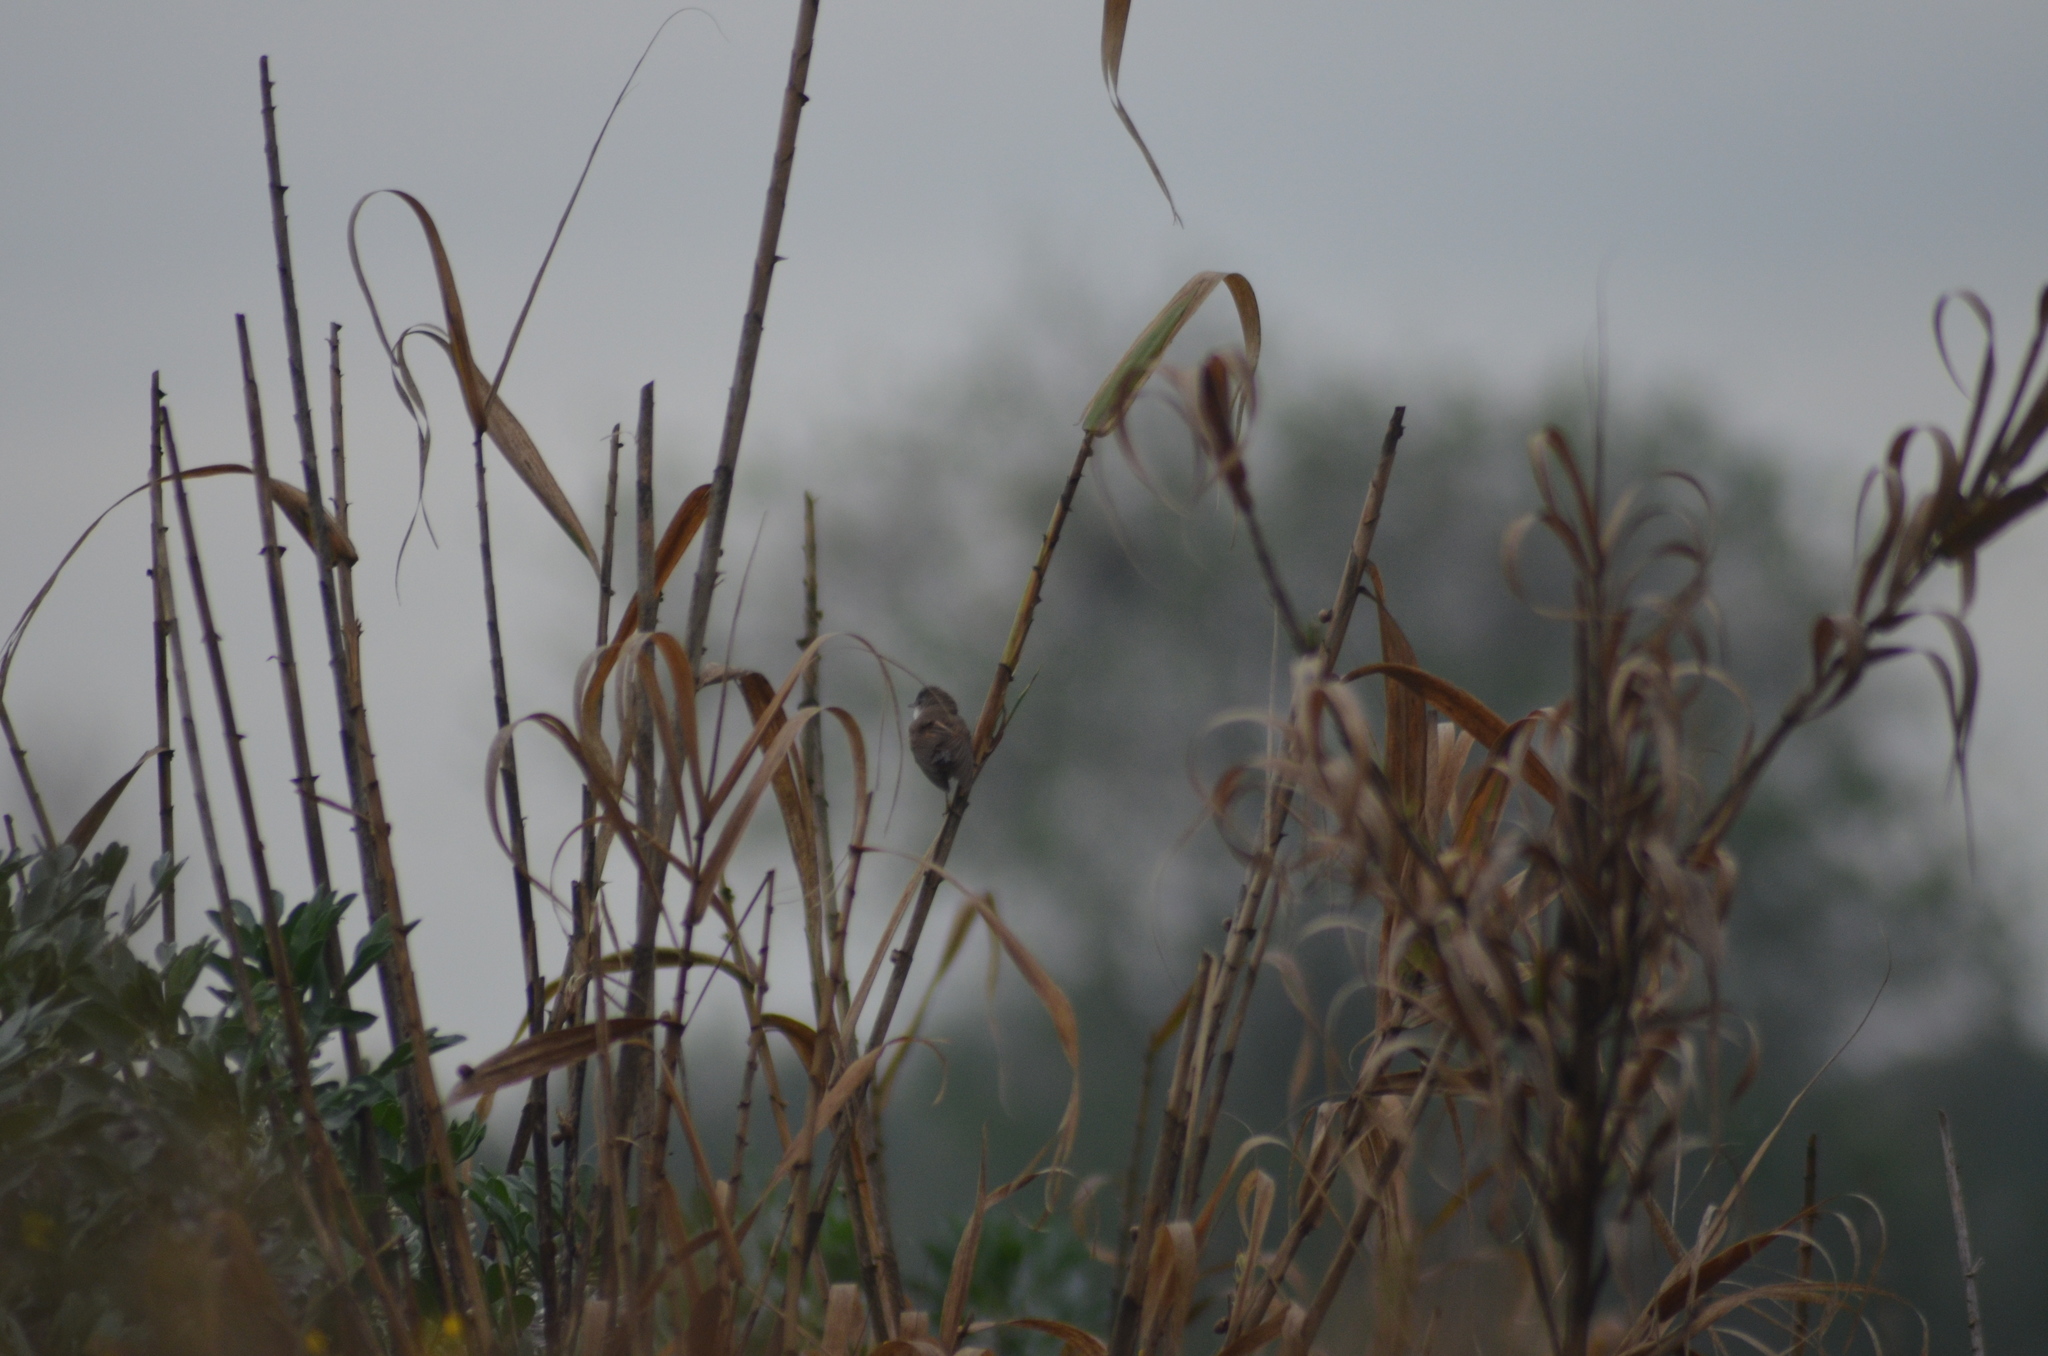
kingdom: Animalia
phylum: Chordata
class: Aves
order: Passeriformes
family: Sylviidae
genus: Sylvia
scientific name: Sylvia communis
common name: Common whitethroat
